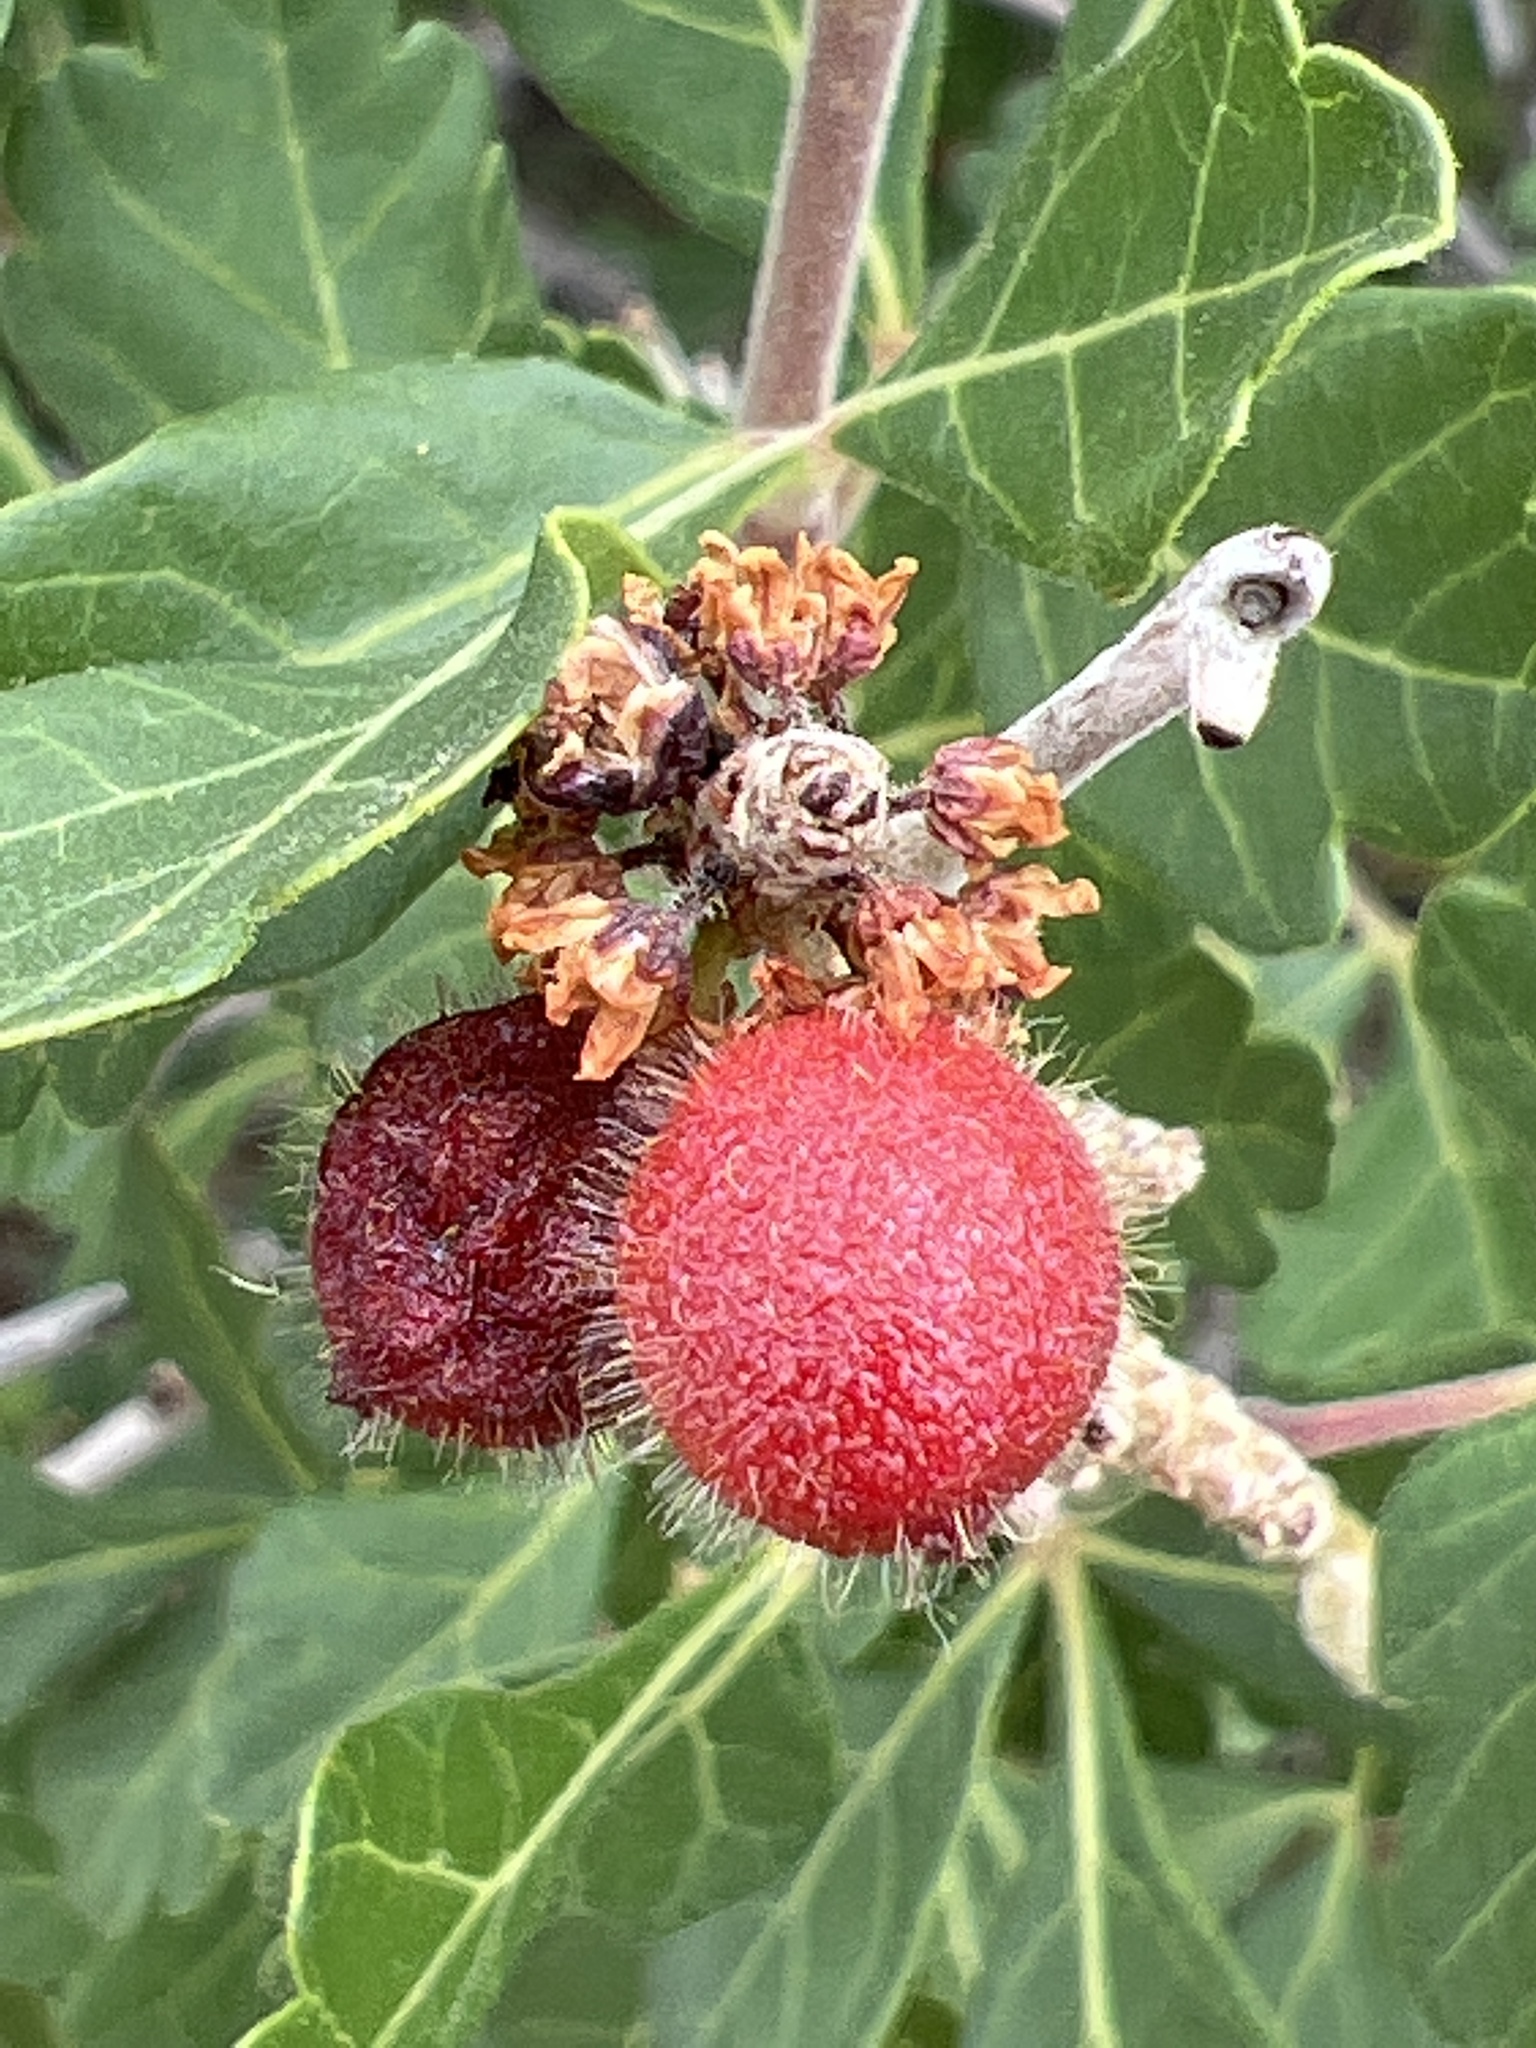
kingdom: Plantae
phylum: Tracheophyta
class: Magnoliopsida
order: Sapindales
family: Anacardiaceae
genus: Rhus
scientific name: Rhus trilobata
